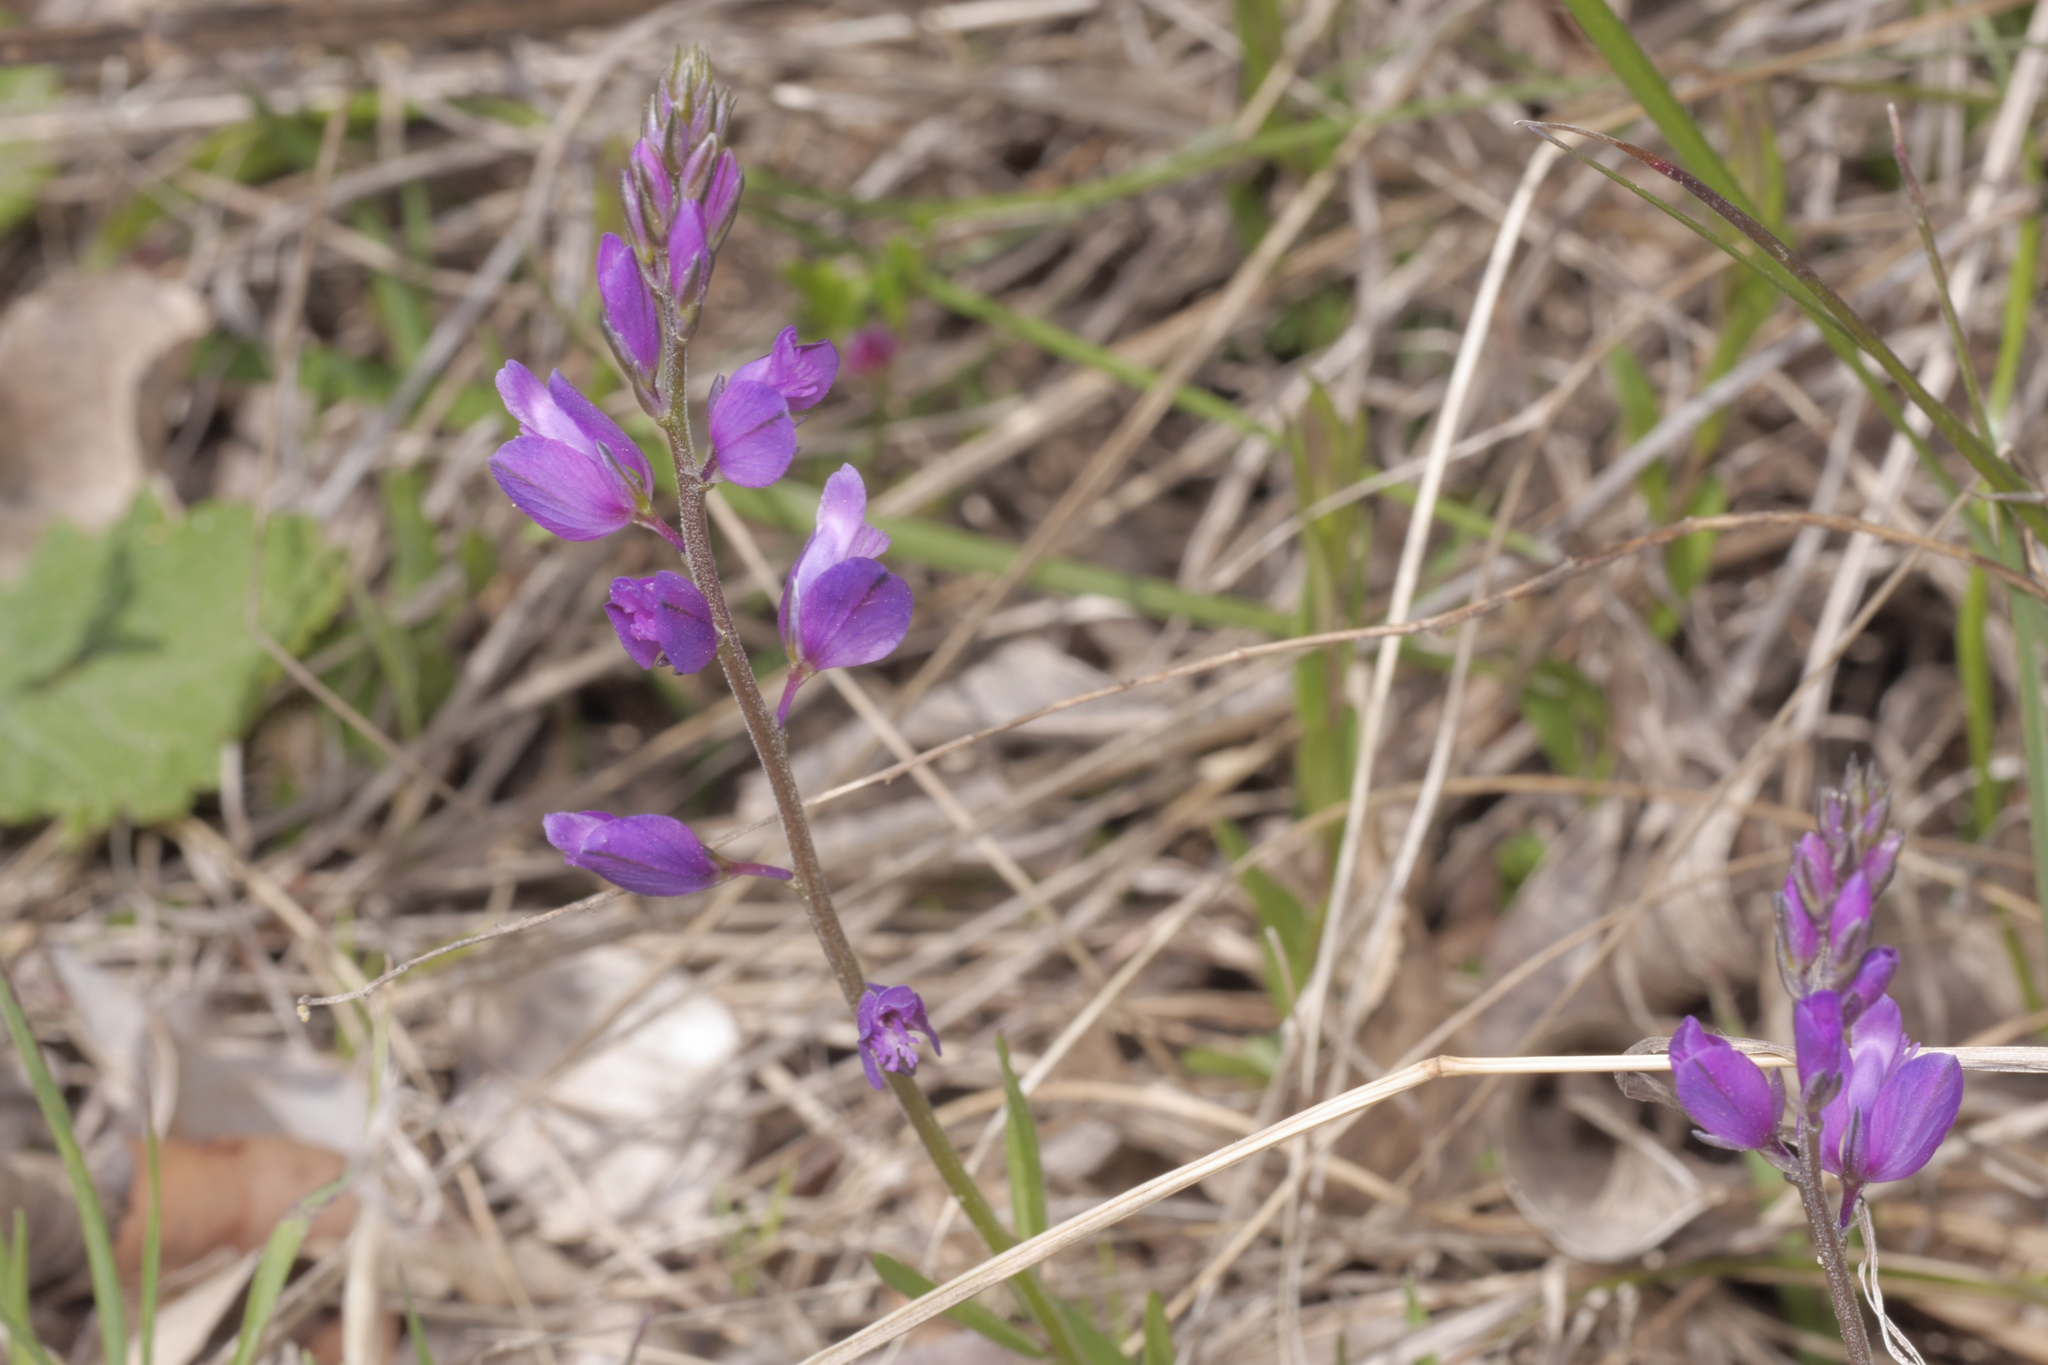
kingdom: Plantae
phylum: Tracheophyta
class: Magnoliopsida
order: Fabales
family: Polygalaceae
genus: Polygala
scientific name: Polygala nicaeensis
